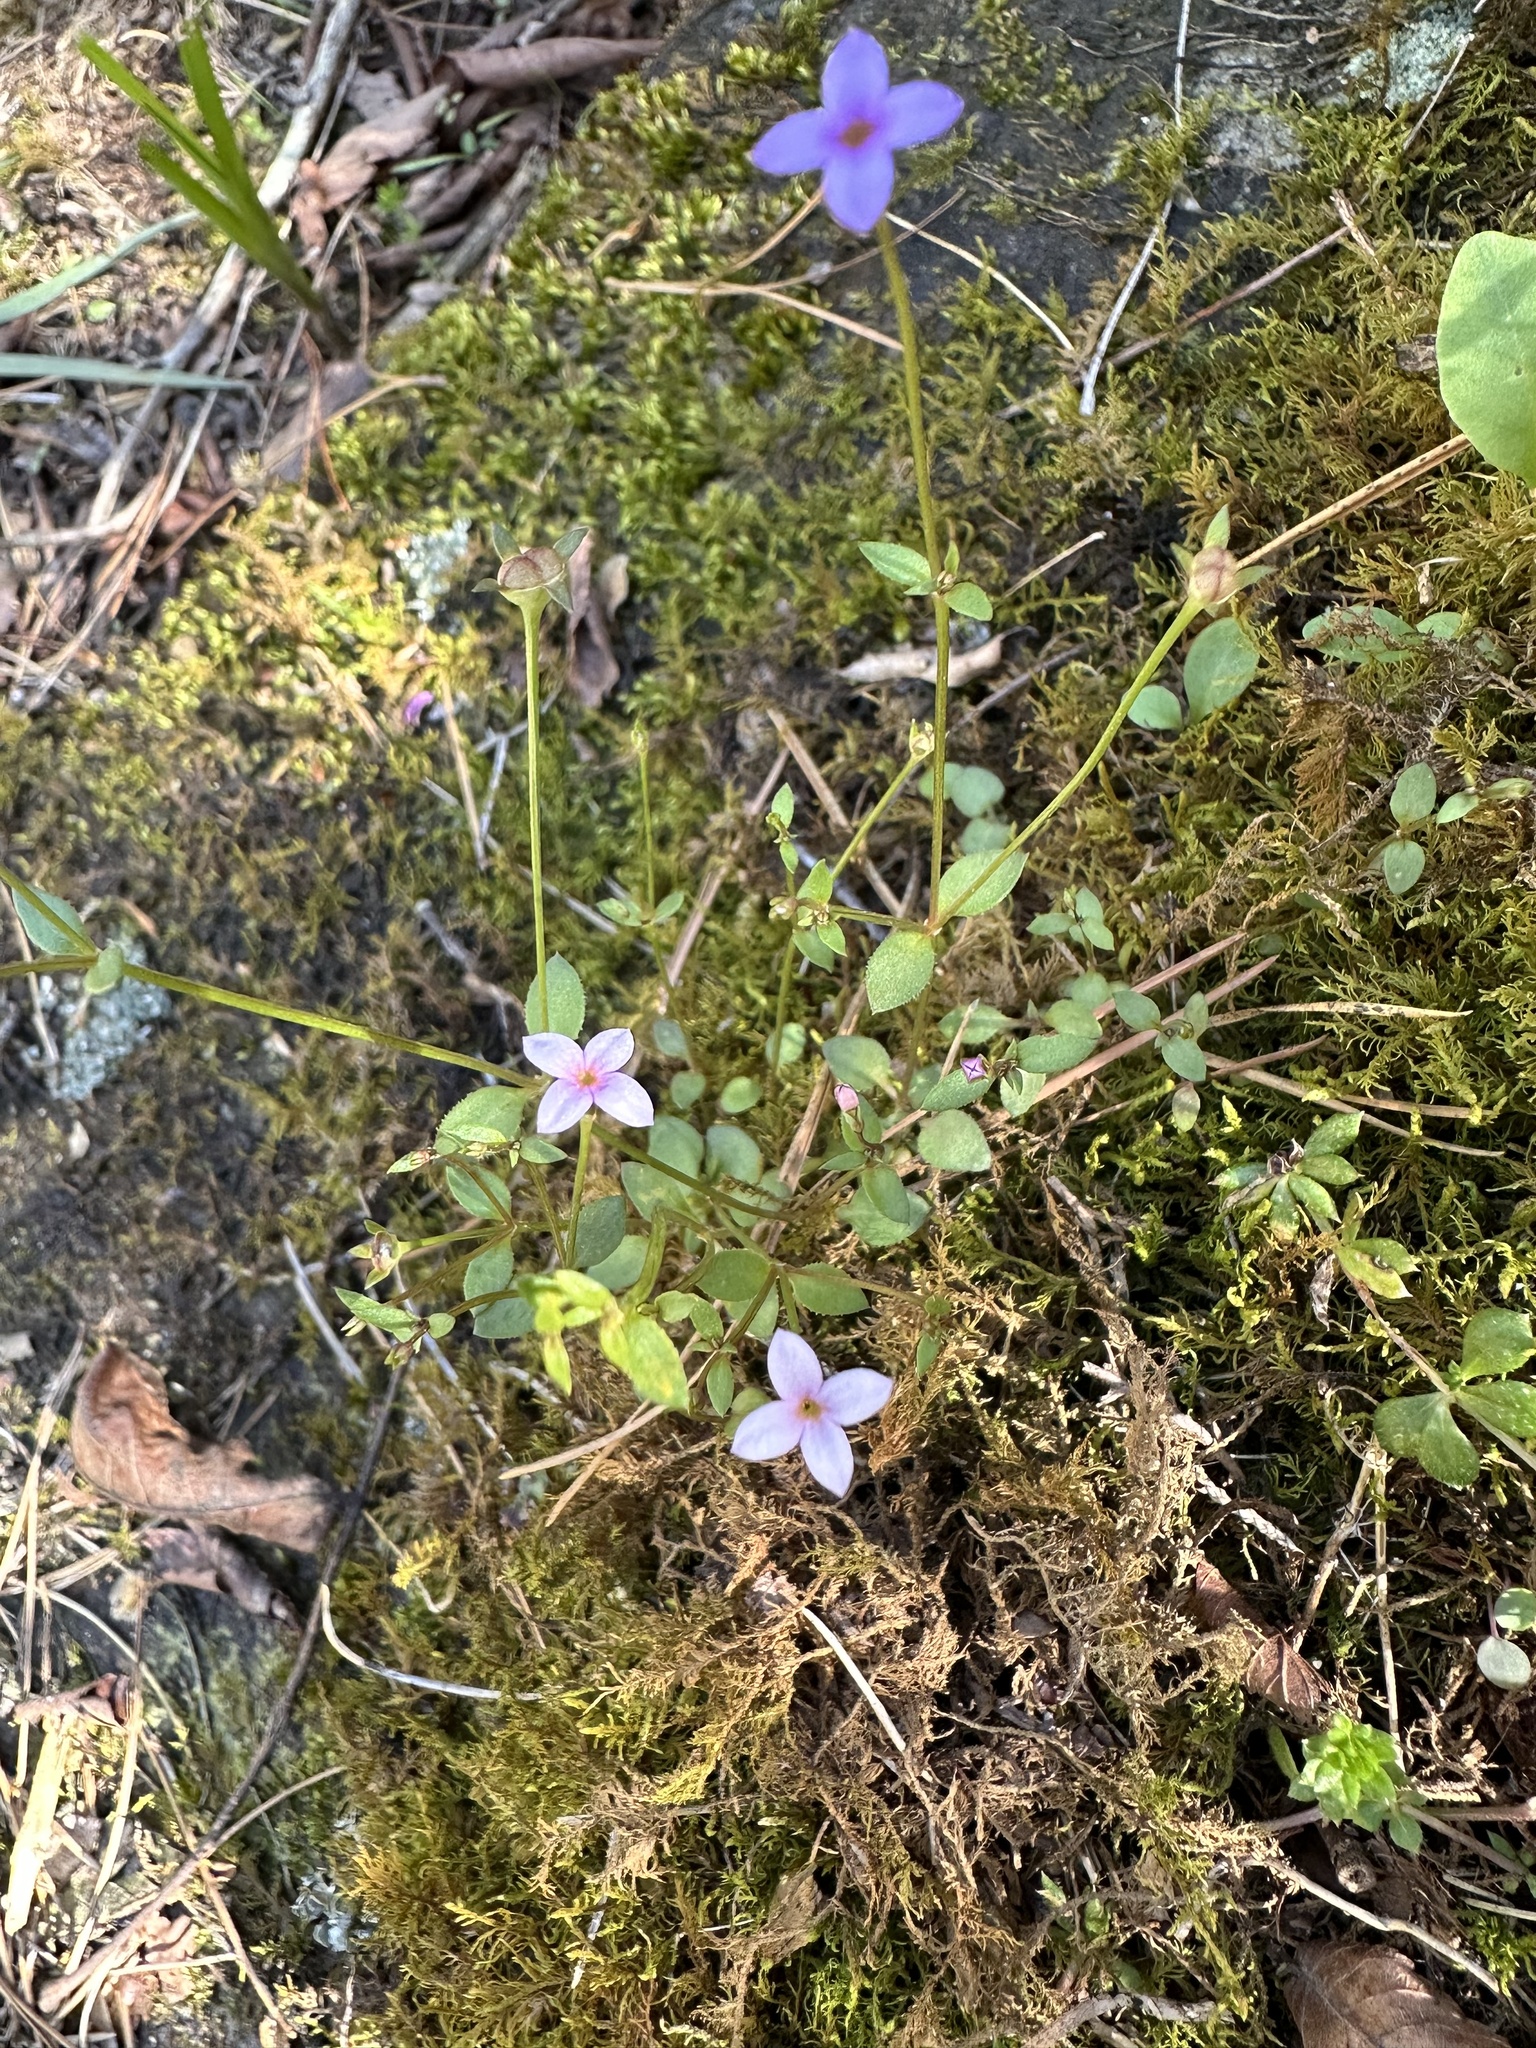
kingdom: Plantae
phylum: Tracheophyta
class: Magnoliopsida
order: Gentianales
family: Rubiaceae
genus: Houstonia
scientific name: Houstonia pusilla
